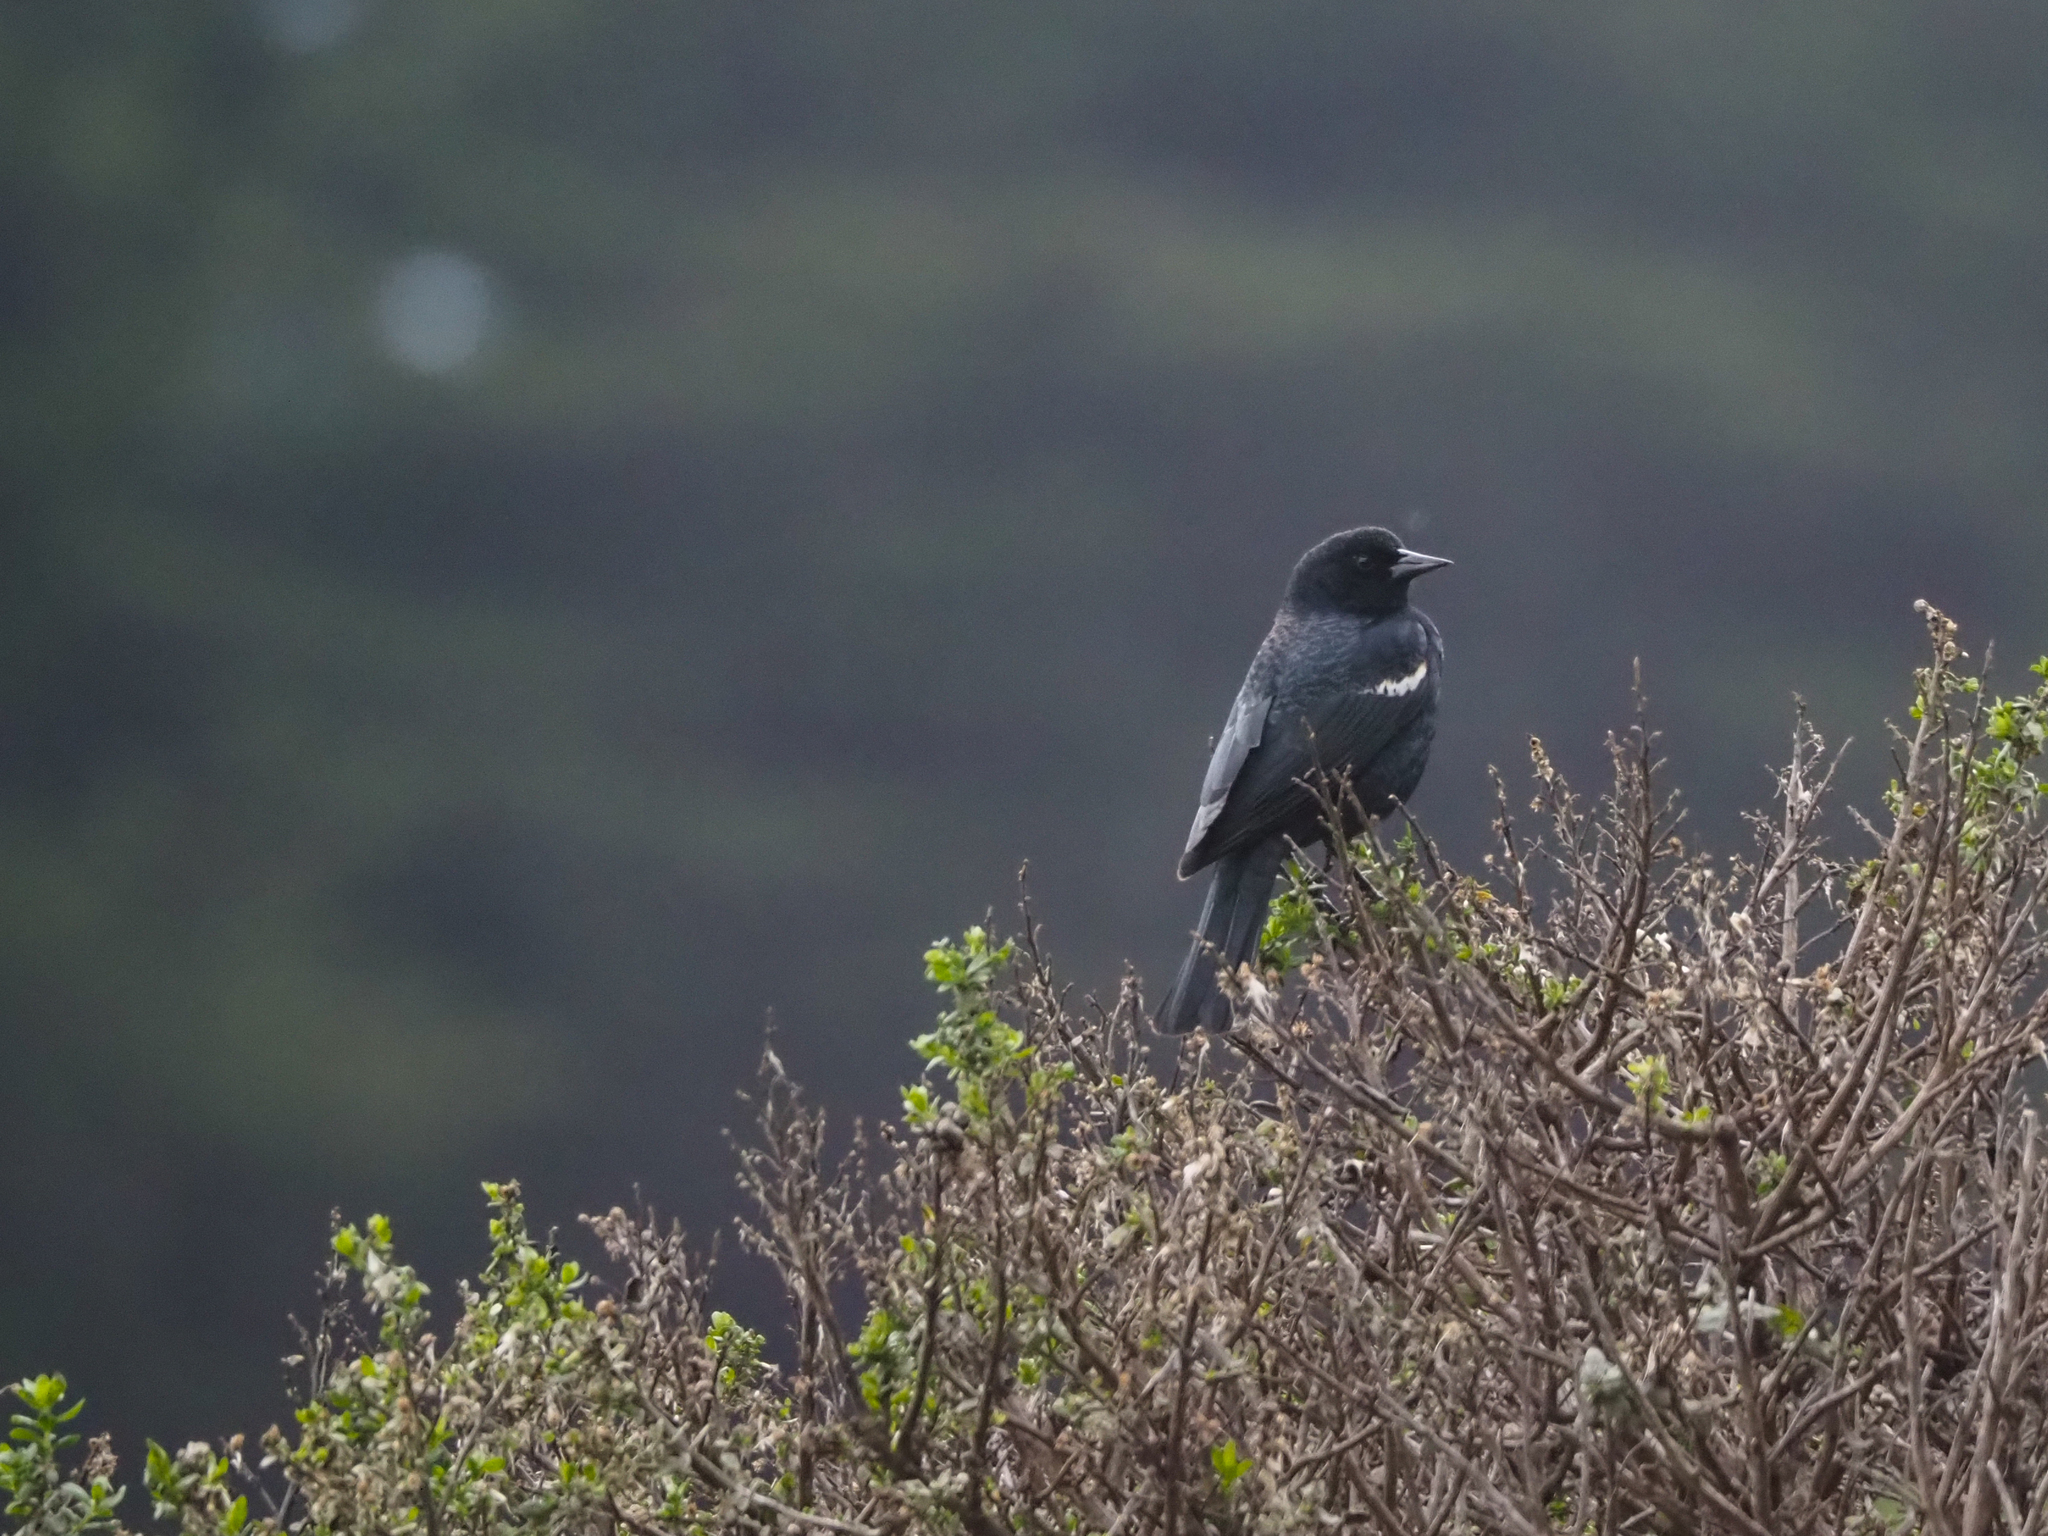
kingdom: Animalia
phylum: Chordata
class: Aves
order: Passeriformes
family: Icteridae
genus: Agelaius
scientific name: Agelaius tricolor
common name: Tricolored blackbird
